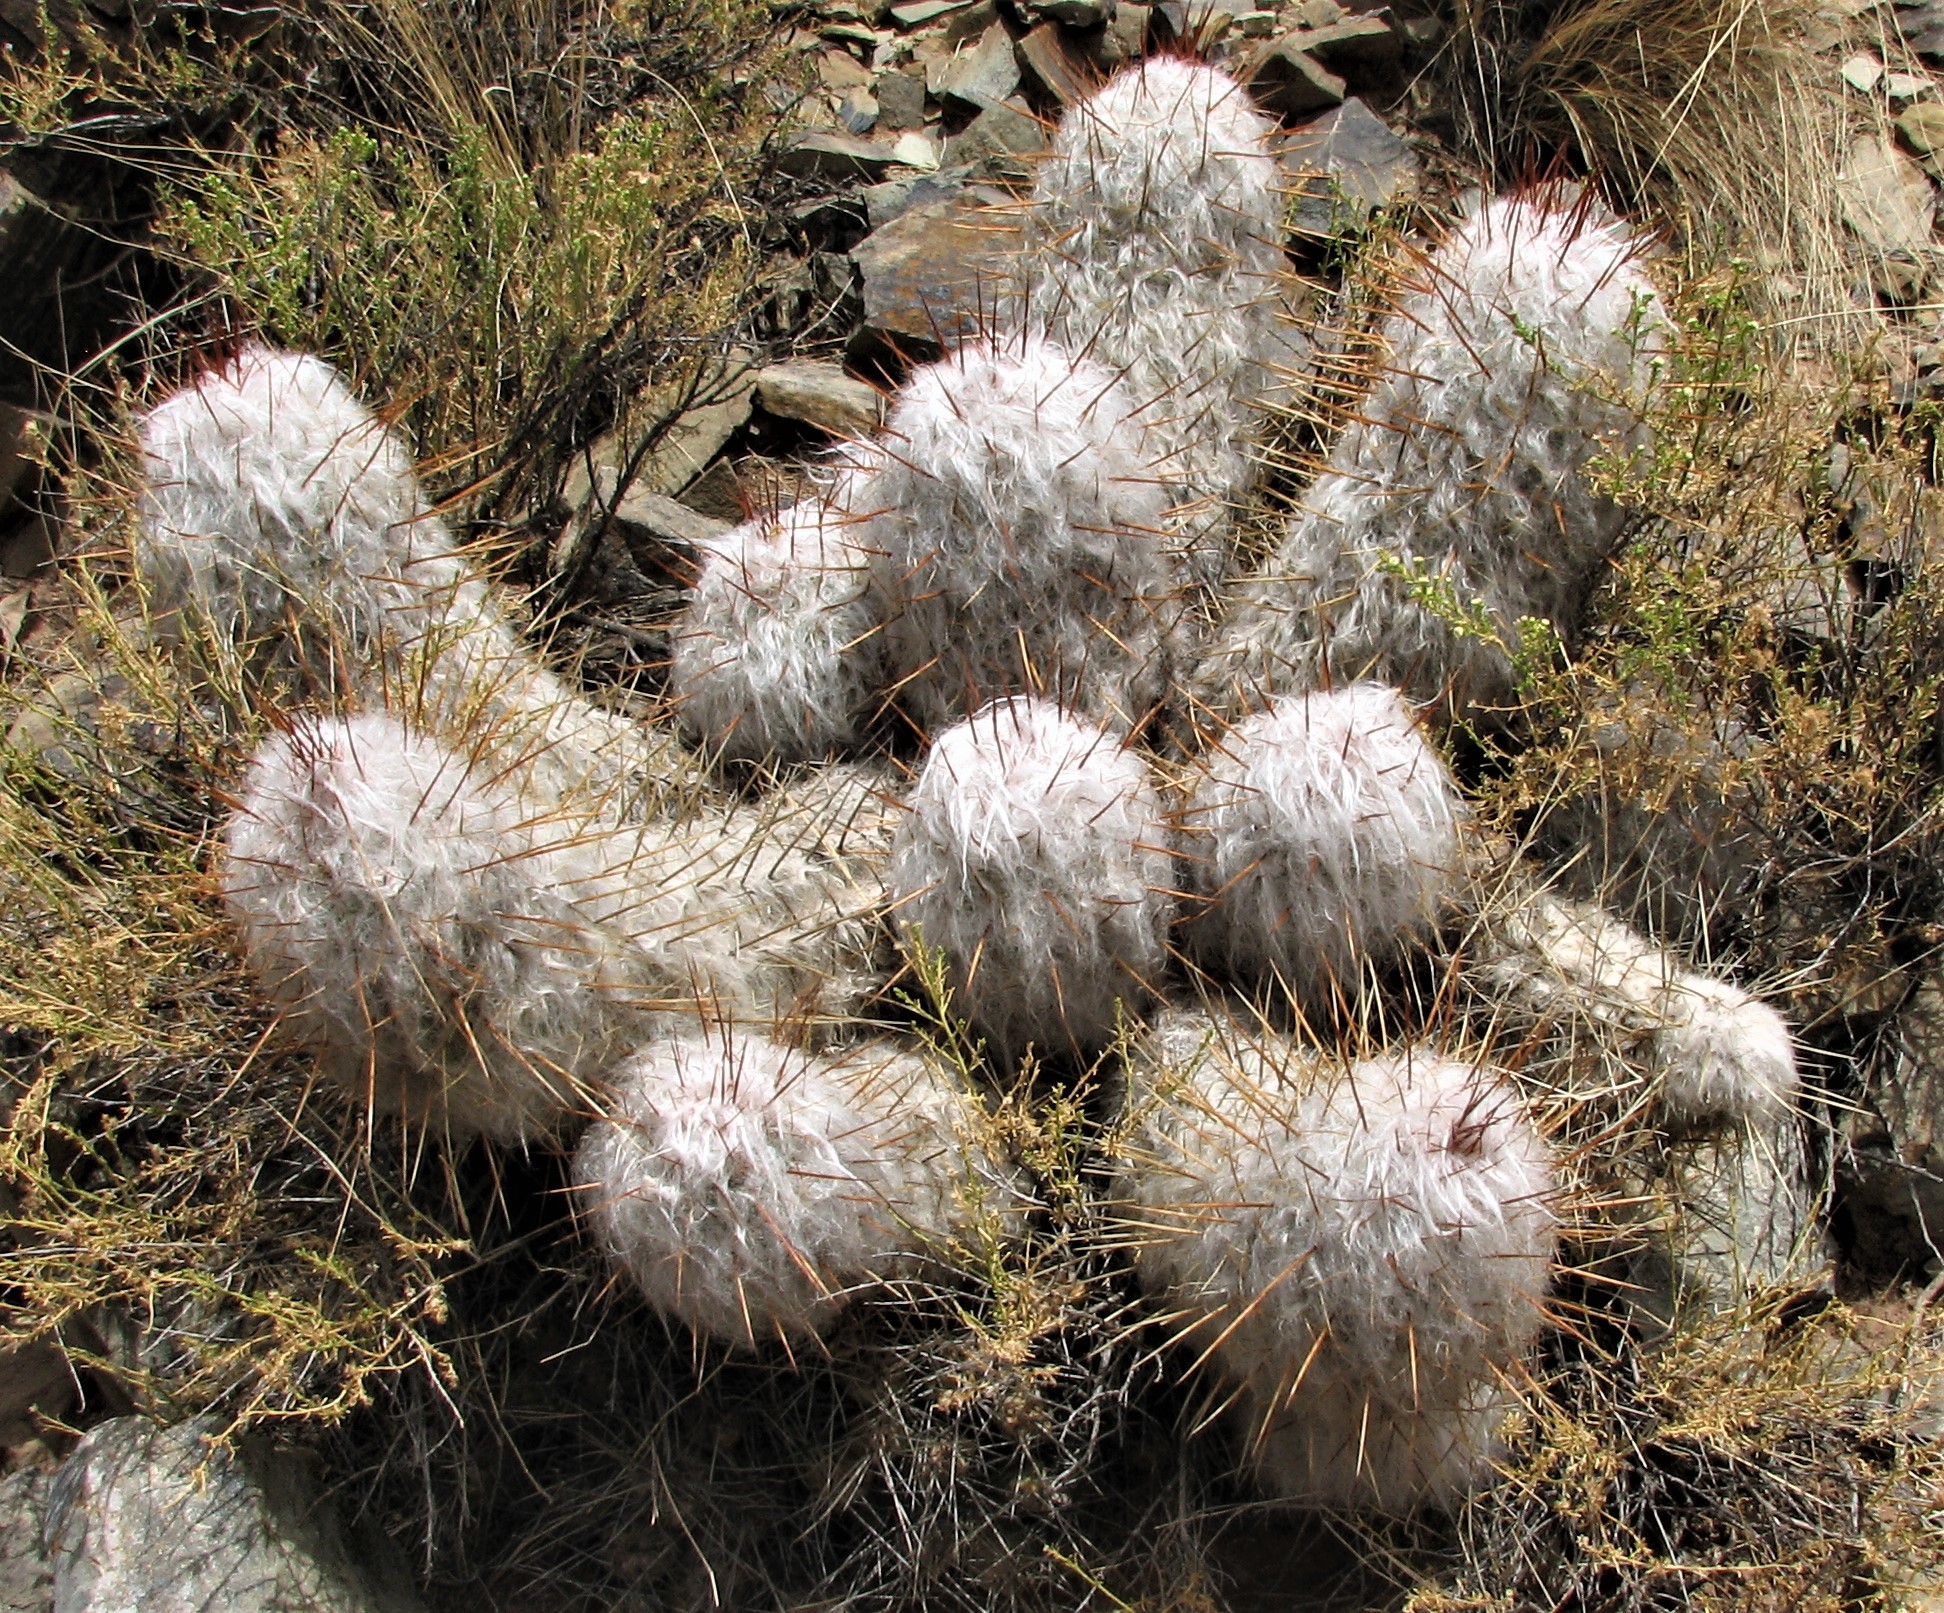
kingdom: Plantae
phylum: Tracheophyta
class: Magnoliopsida
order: Caryophyllales
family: Cactaceae
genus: Oreocereus
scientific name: Oreocereus trollii
